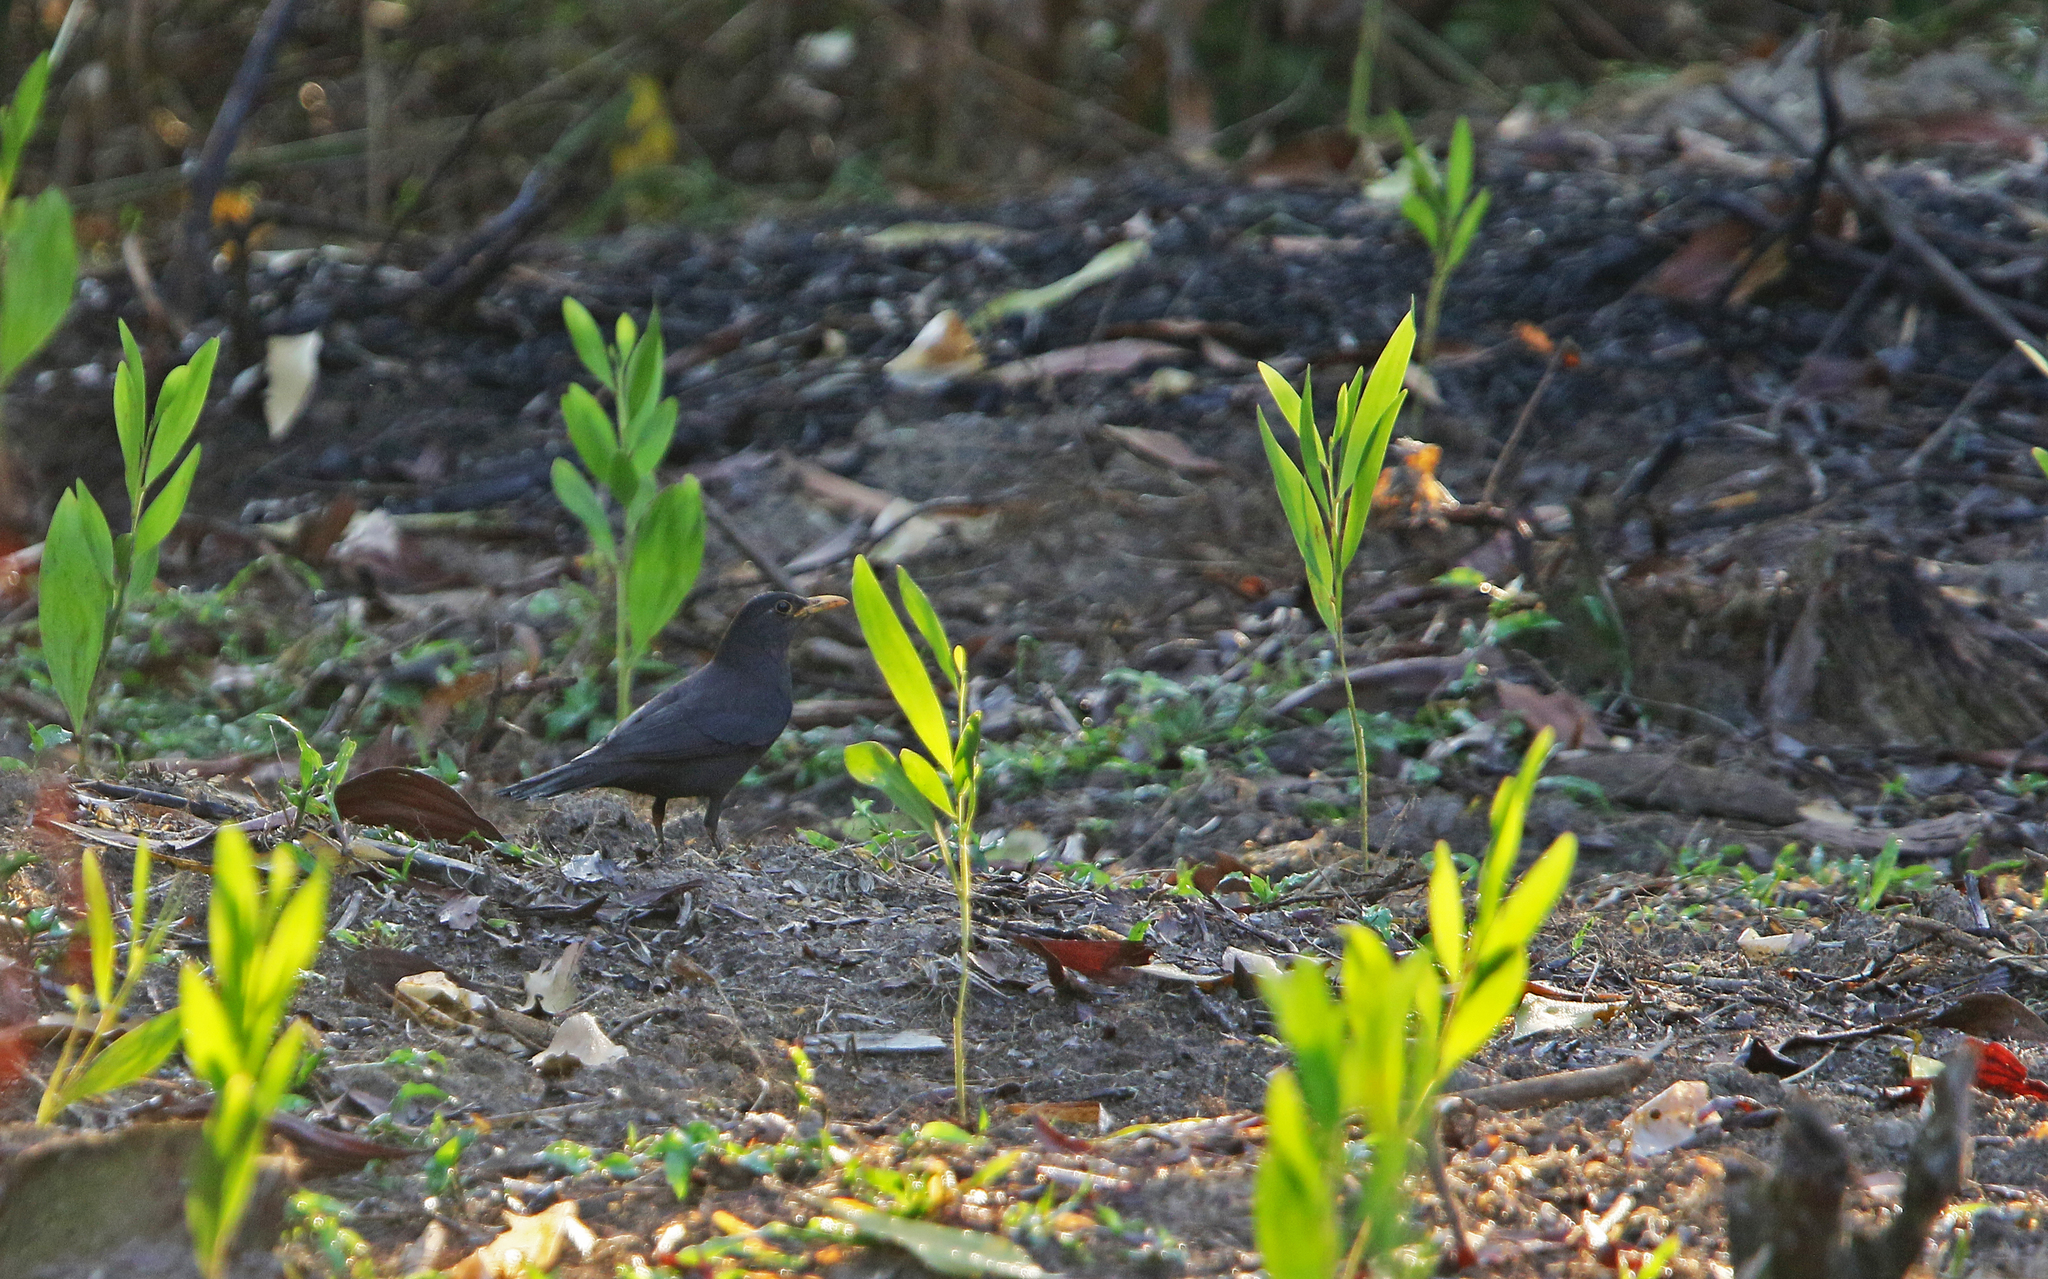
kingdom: Animalia
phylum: Chordata
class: Aves
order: Passeriformes
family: Turdidae
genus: Turdus
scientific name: Turdus mandarinus
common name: Chinese blackbird
